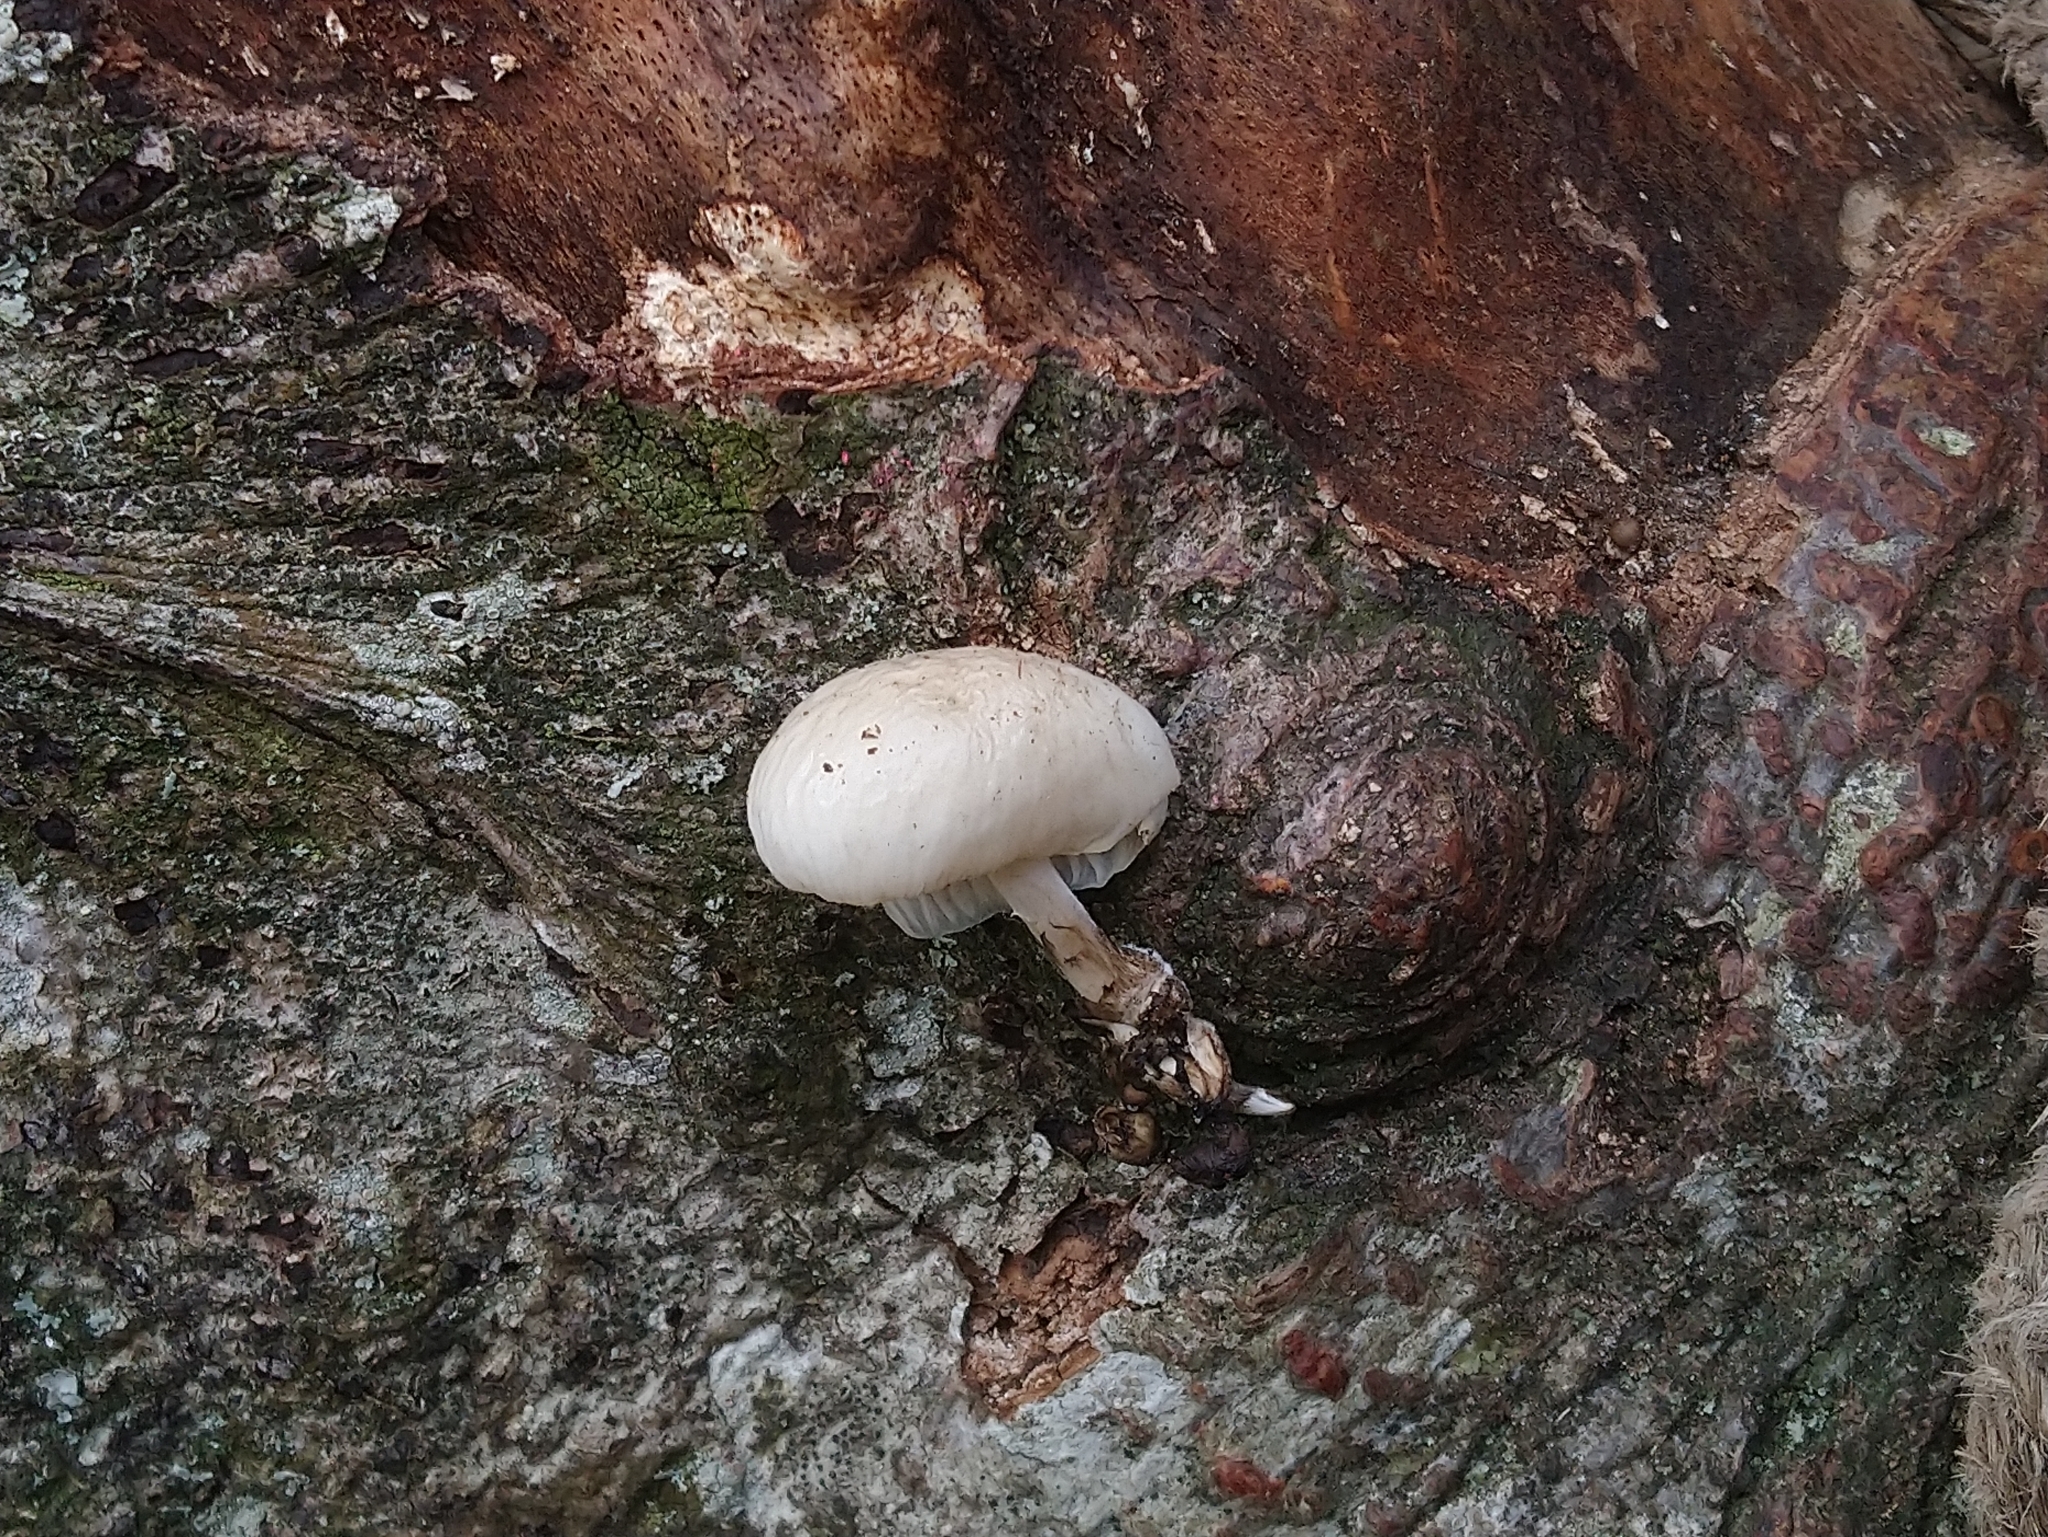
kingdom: Fungi
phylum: Basidiomycota
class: Agaricomycetes
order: Agaricales
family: Physalacriaceae
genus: Mucidula
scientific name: Mucidula mucida
